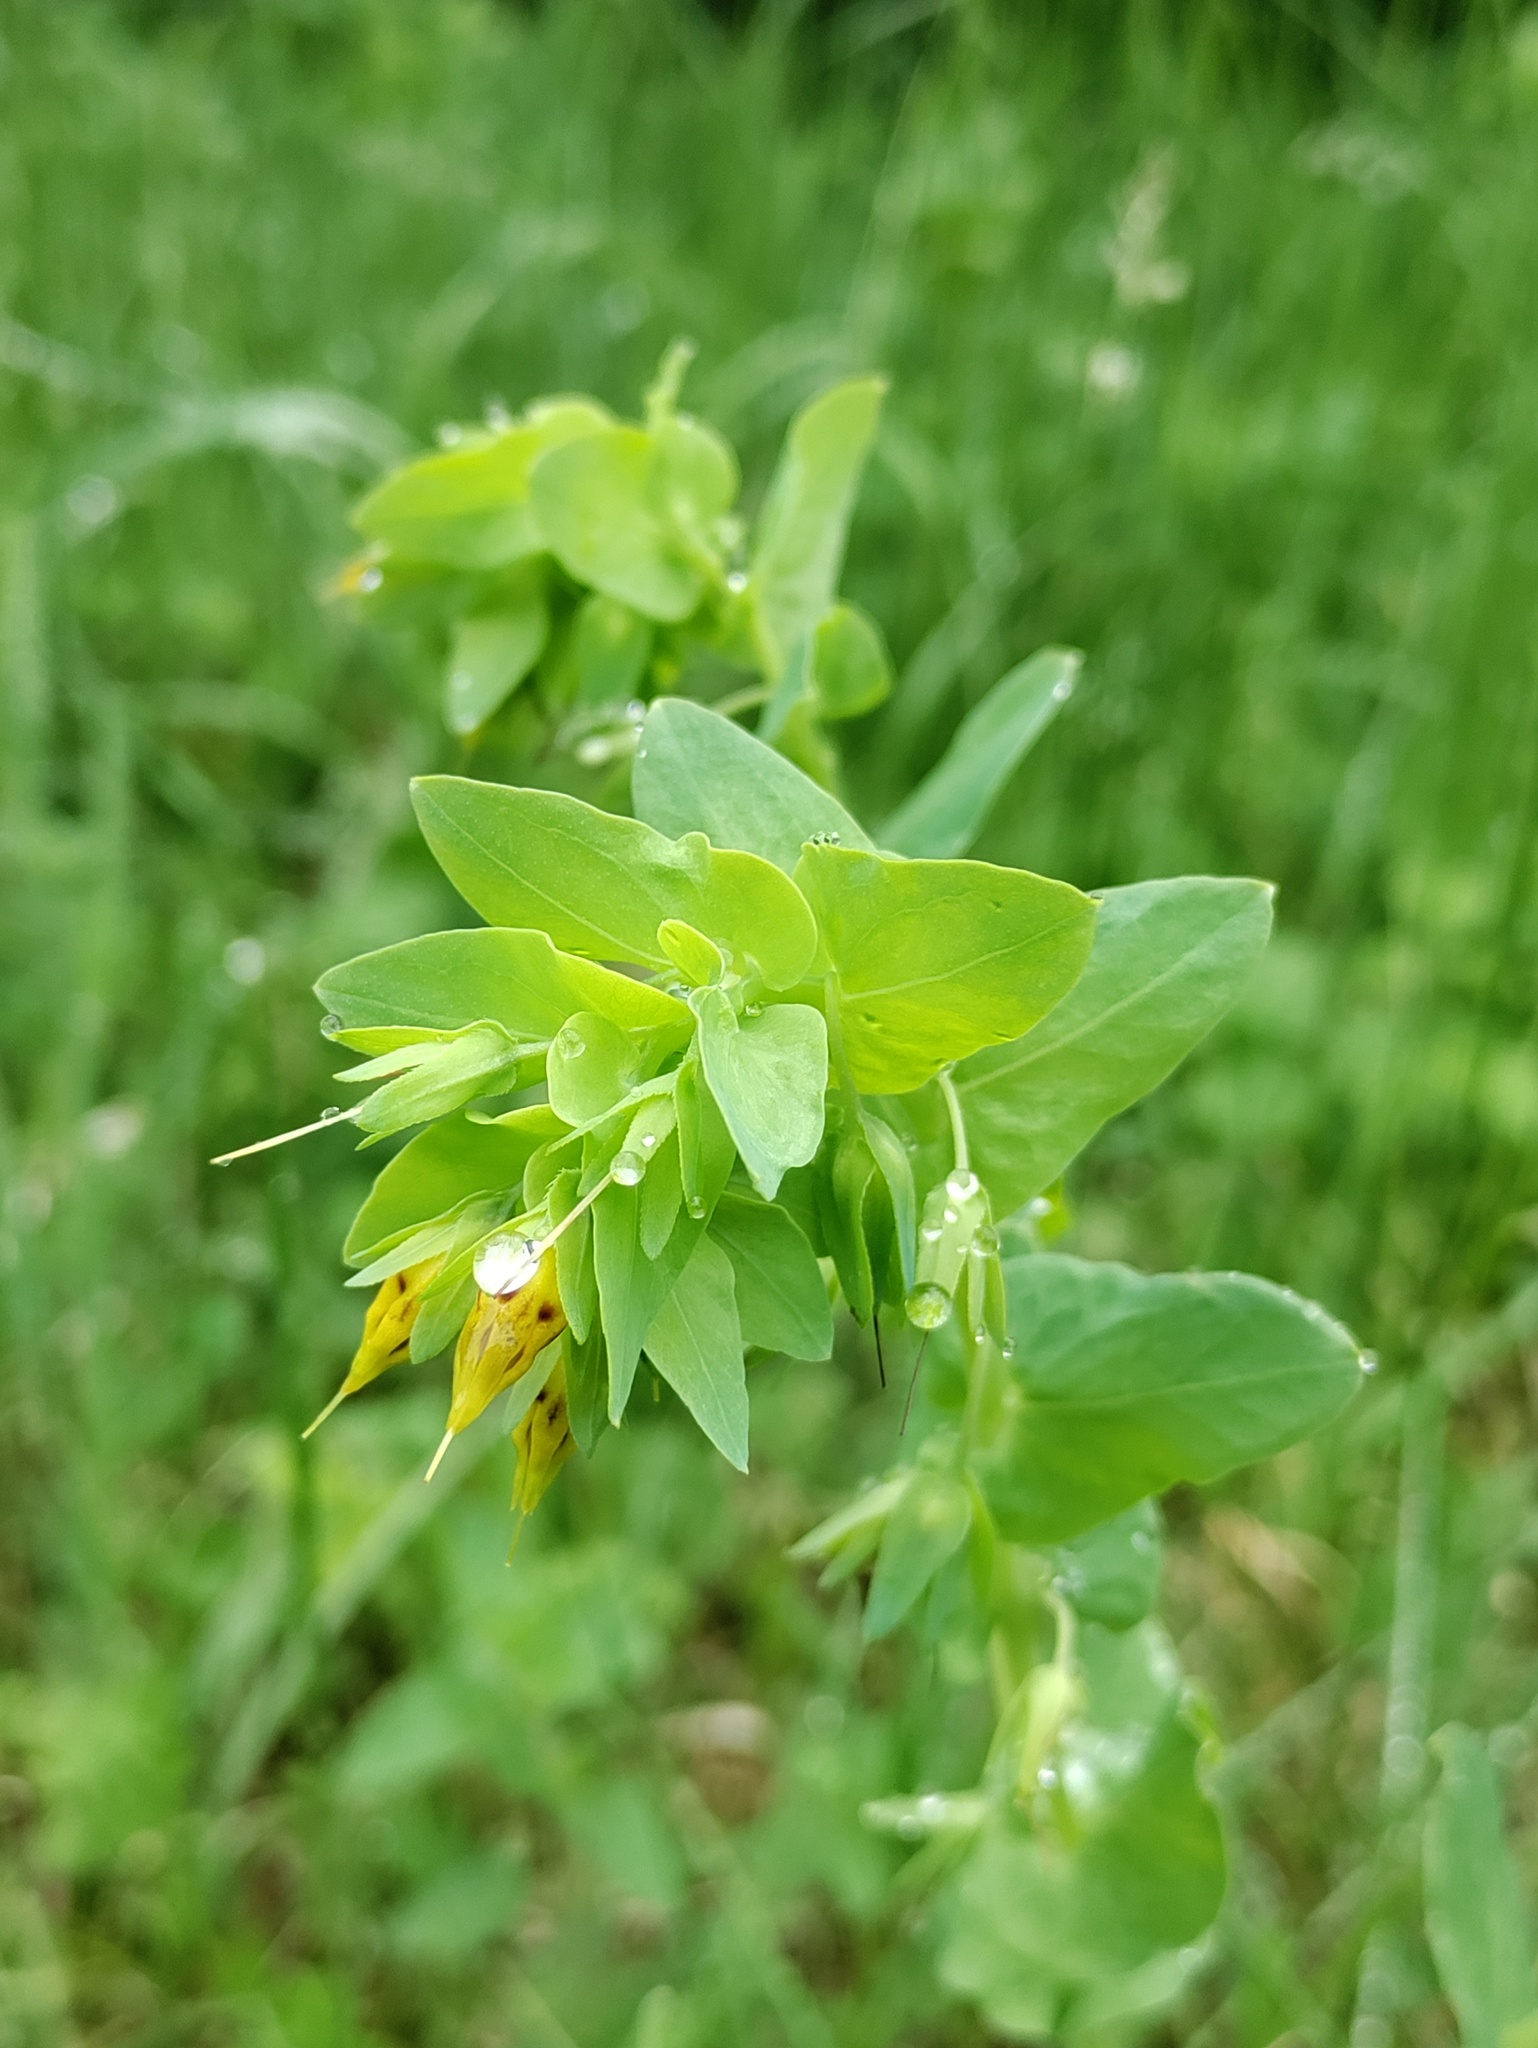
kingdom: Plantae
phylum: Tracheophyta
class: Magnoliopsida
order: Boraginales
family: Boraginaceae
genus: Cerinthe
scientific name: Cerinthe minor
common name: Lesser honeywort
